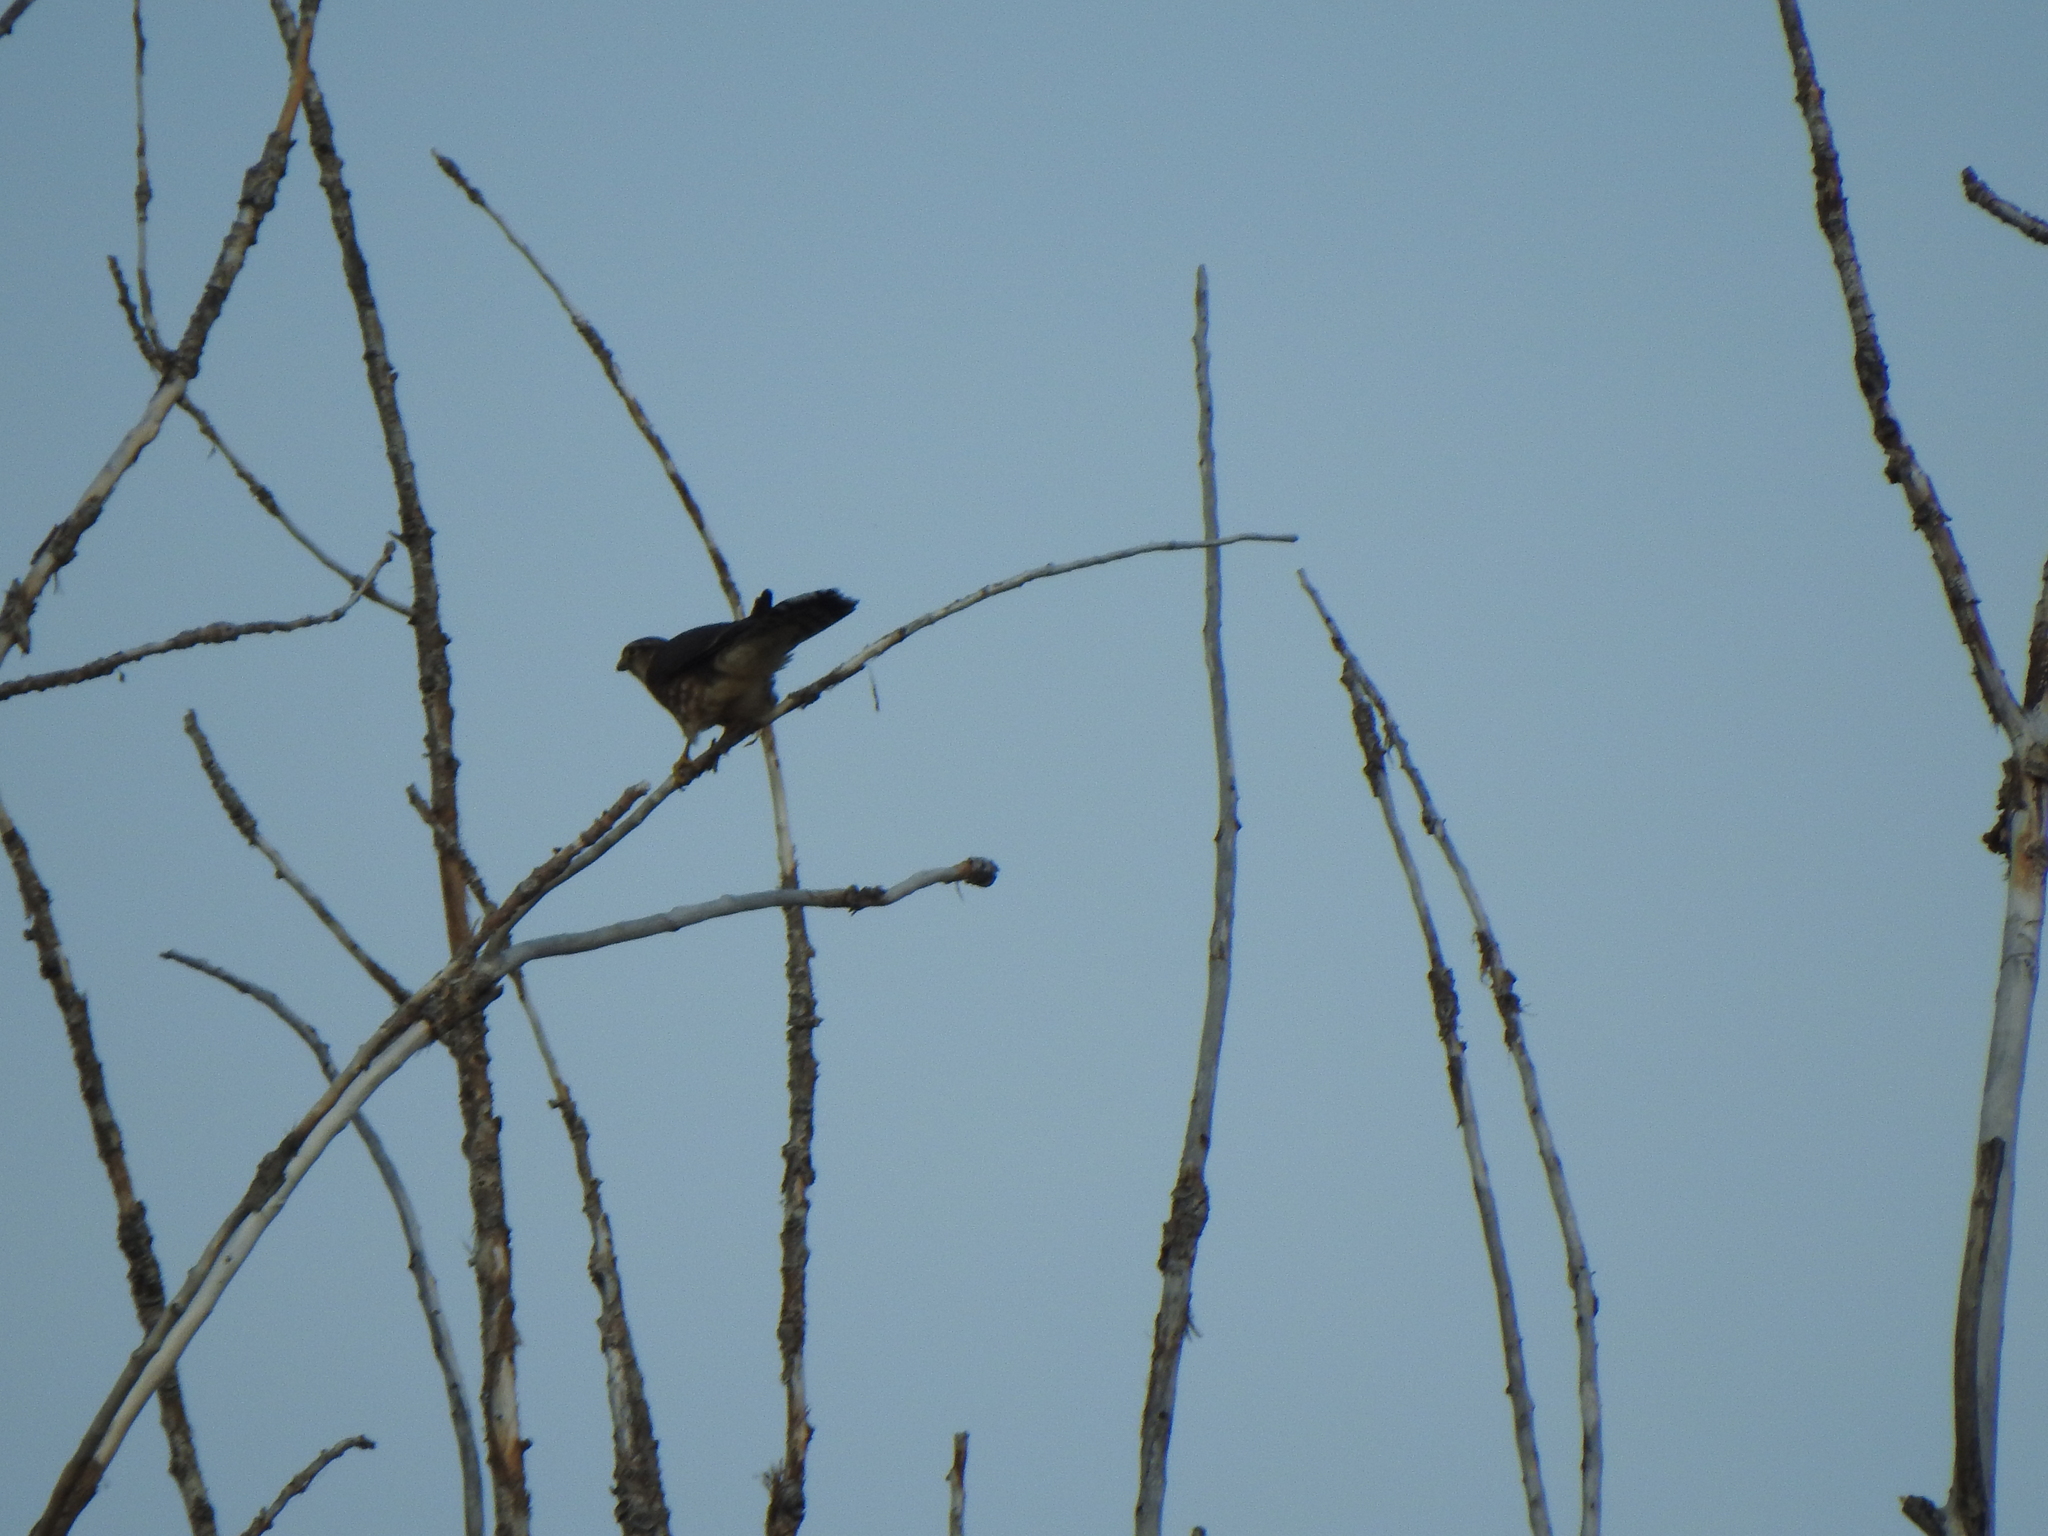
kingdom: Animalia
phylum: Chordata
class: Aves
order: Falconiformes
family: Falconidae
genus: Falco
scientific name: Falco columbarius
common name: Merlin
